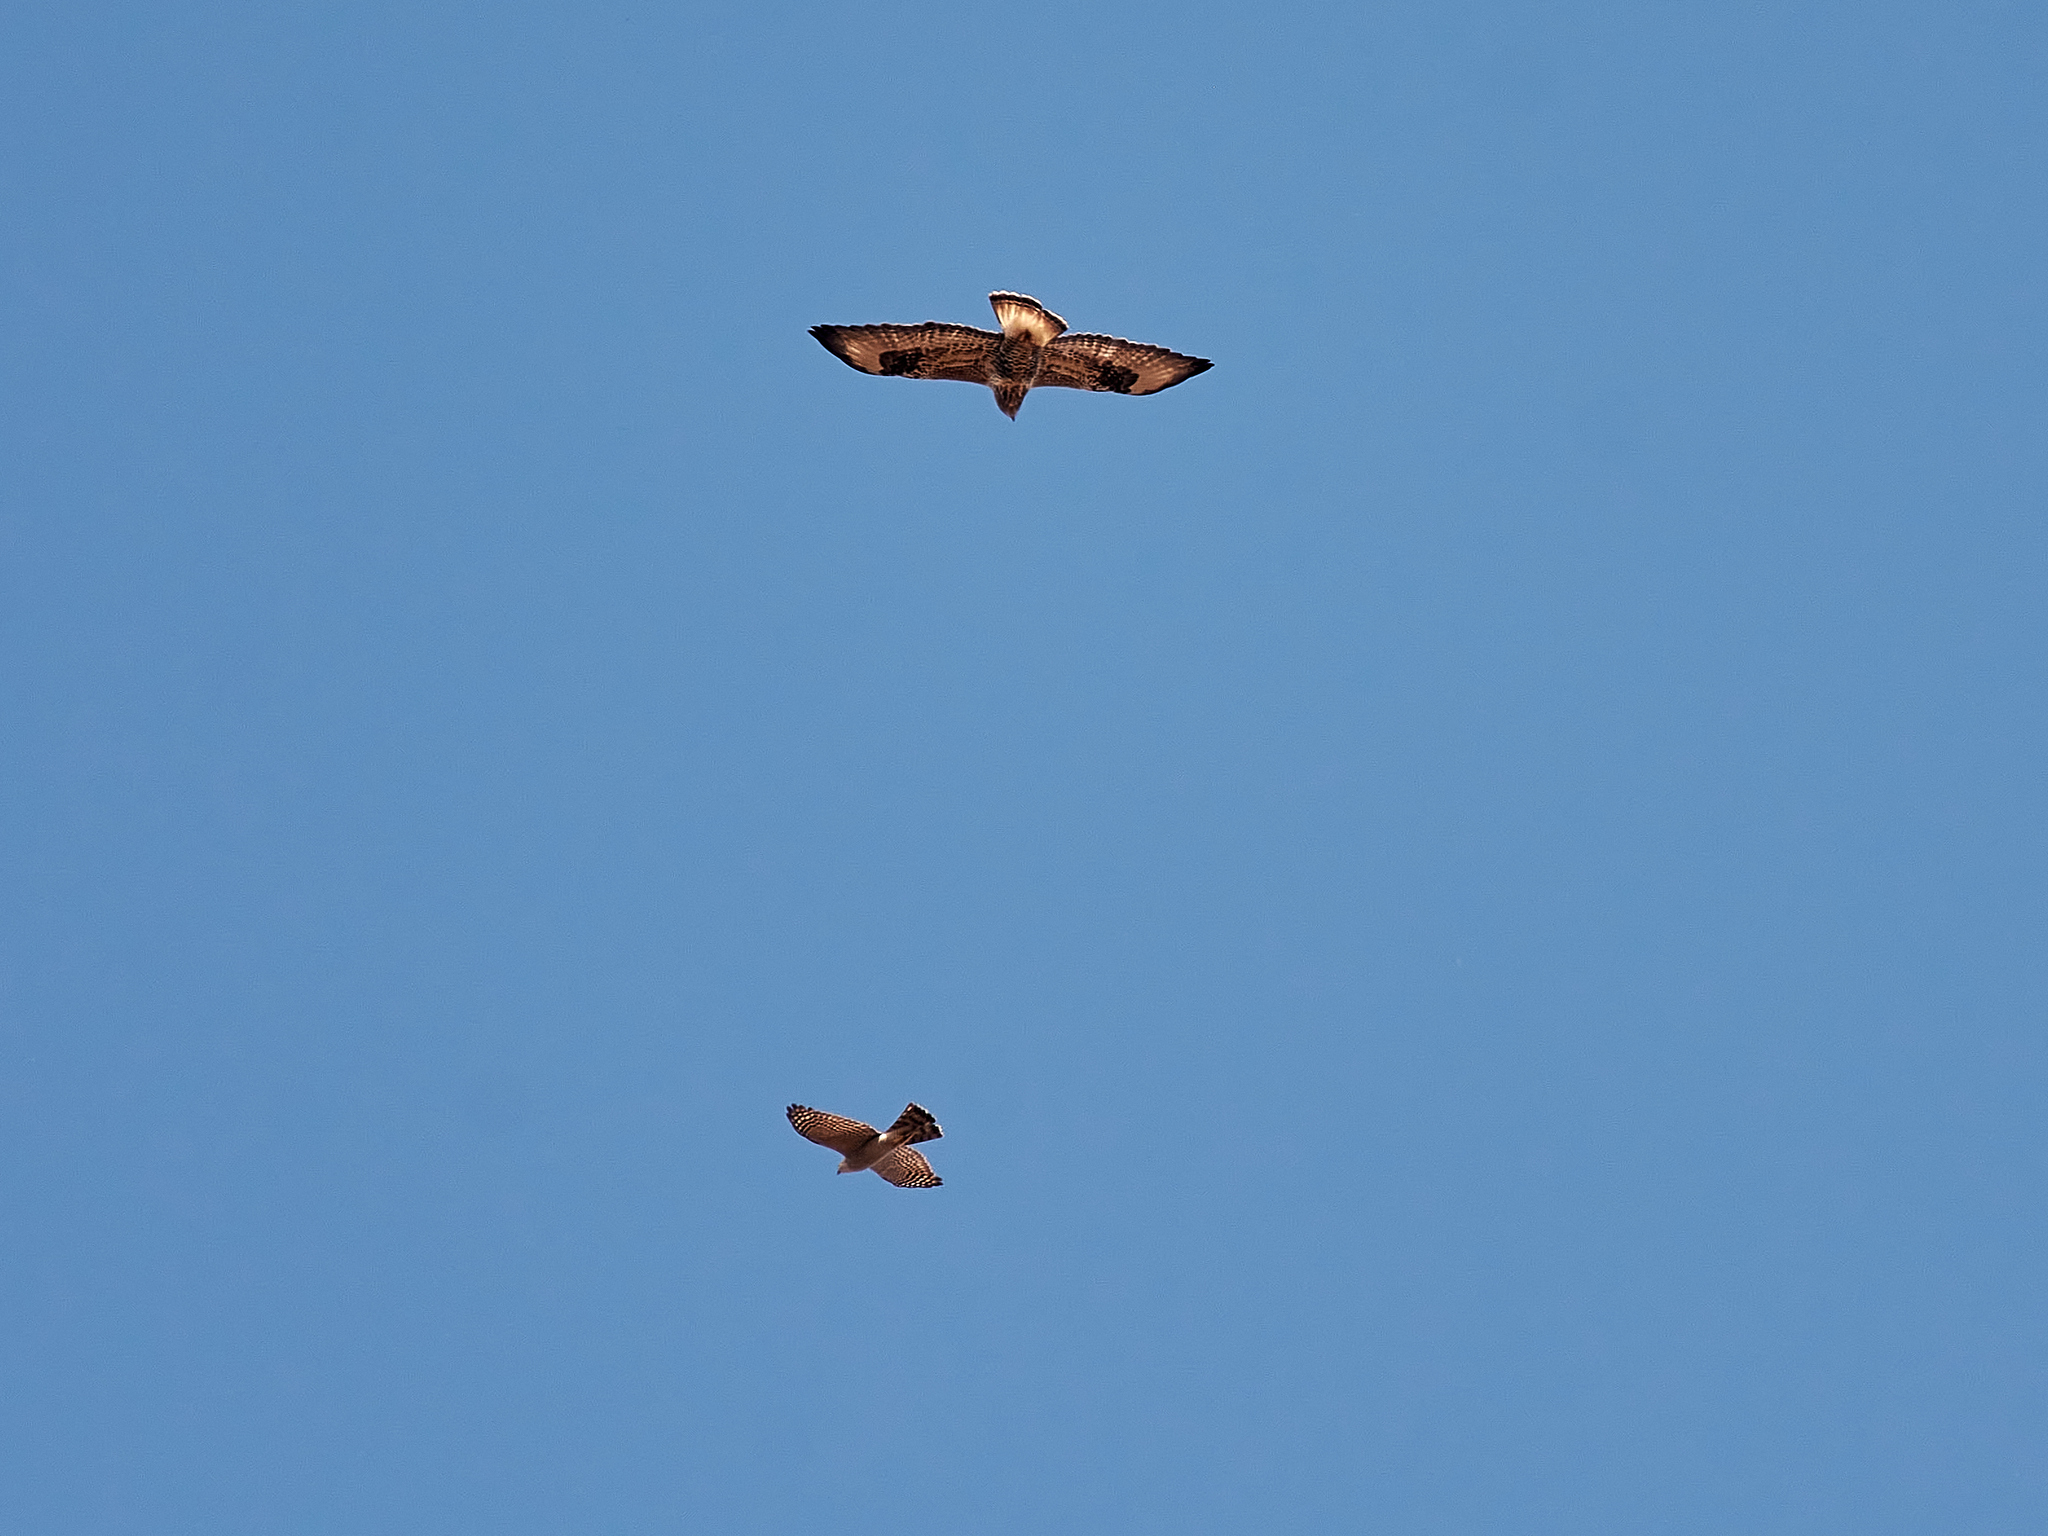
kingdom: Animalia
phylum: Chordata
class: Aves
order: Accipitriformes
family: Accipitridae
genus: Accipiter
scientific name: Accipiter nisus
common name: Eurasian sparrowhawk
